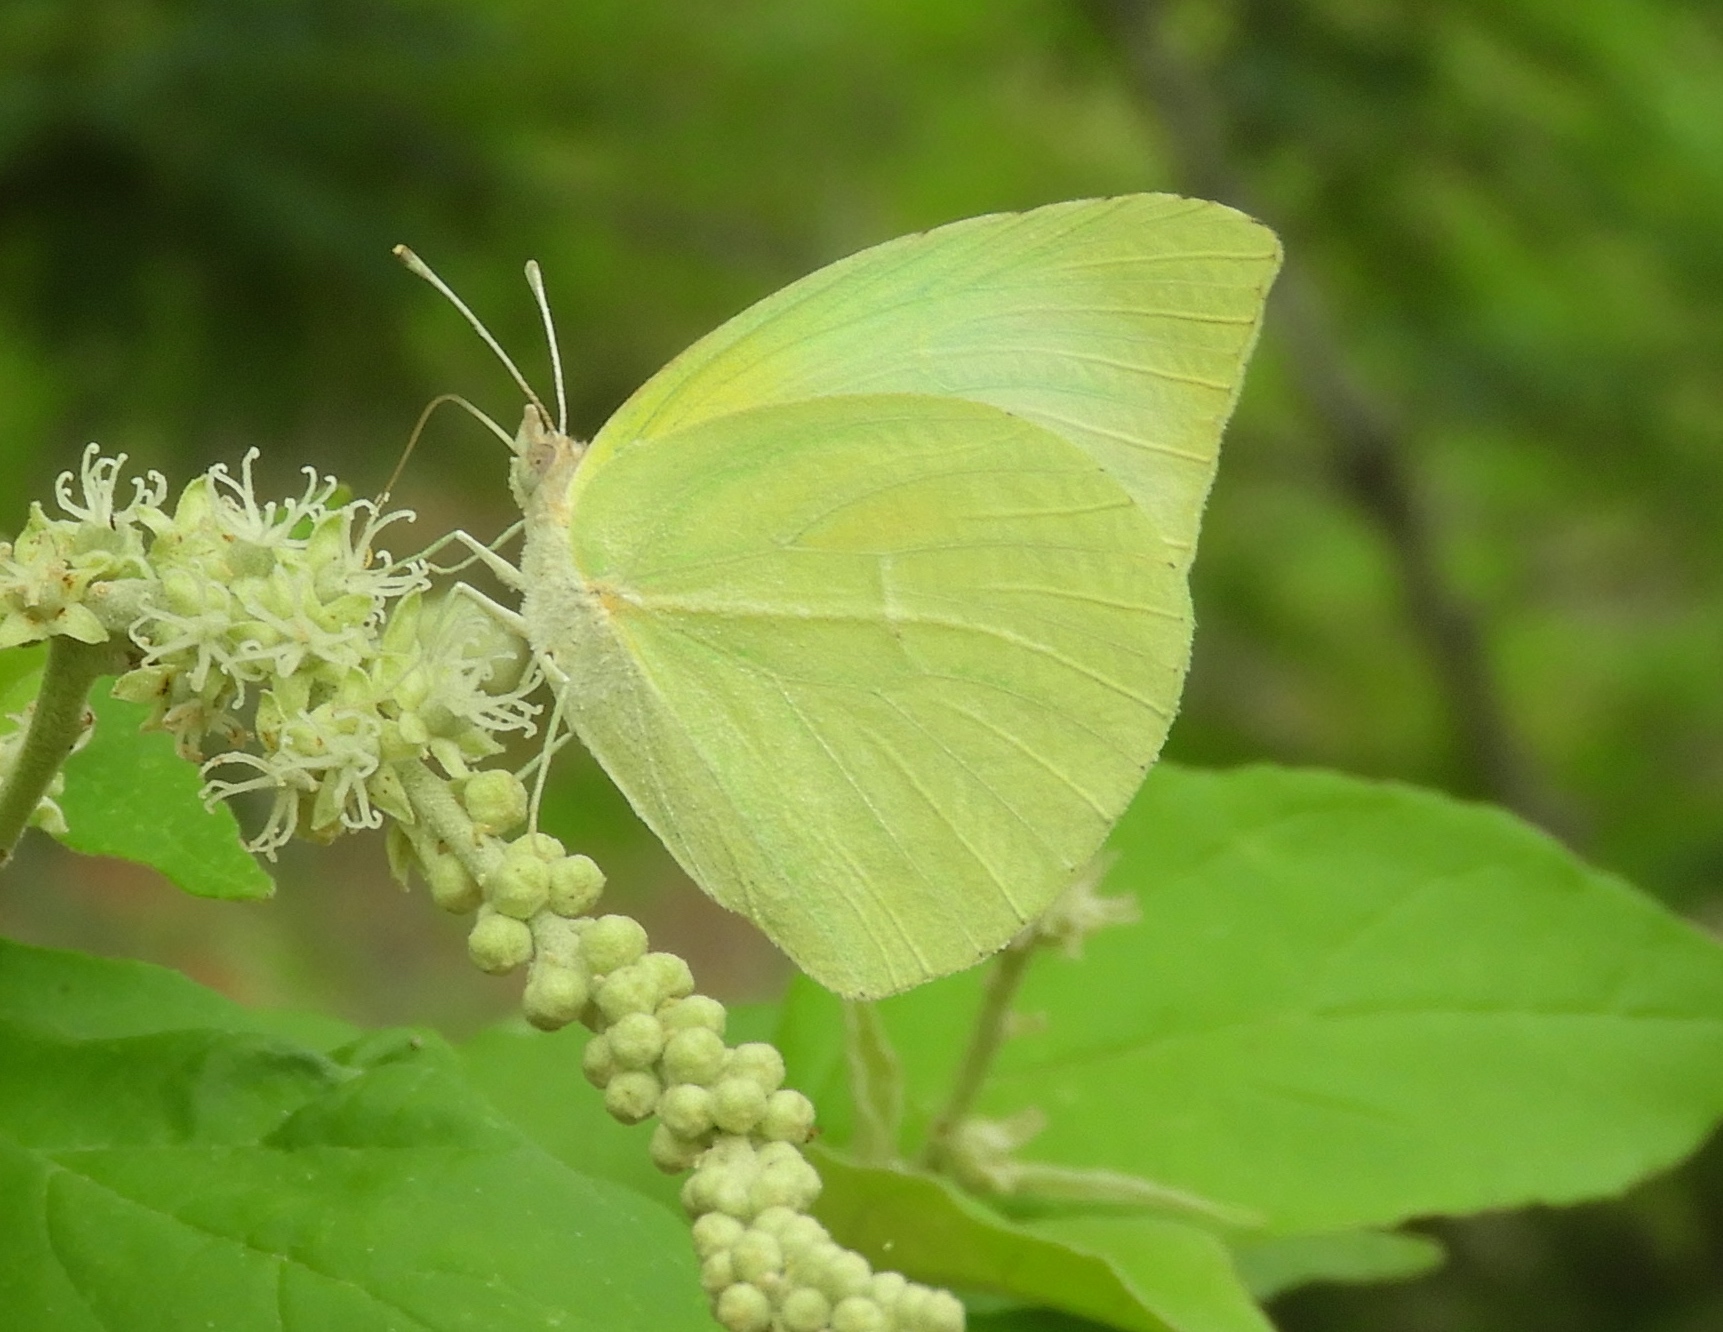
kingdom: Animalia
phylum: Arthropoda
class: Insecta
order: Lepidoptera
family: Pieridae
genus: Kricogonia
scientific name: Kricogonia lyside
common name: Guayacan sulphur,
